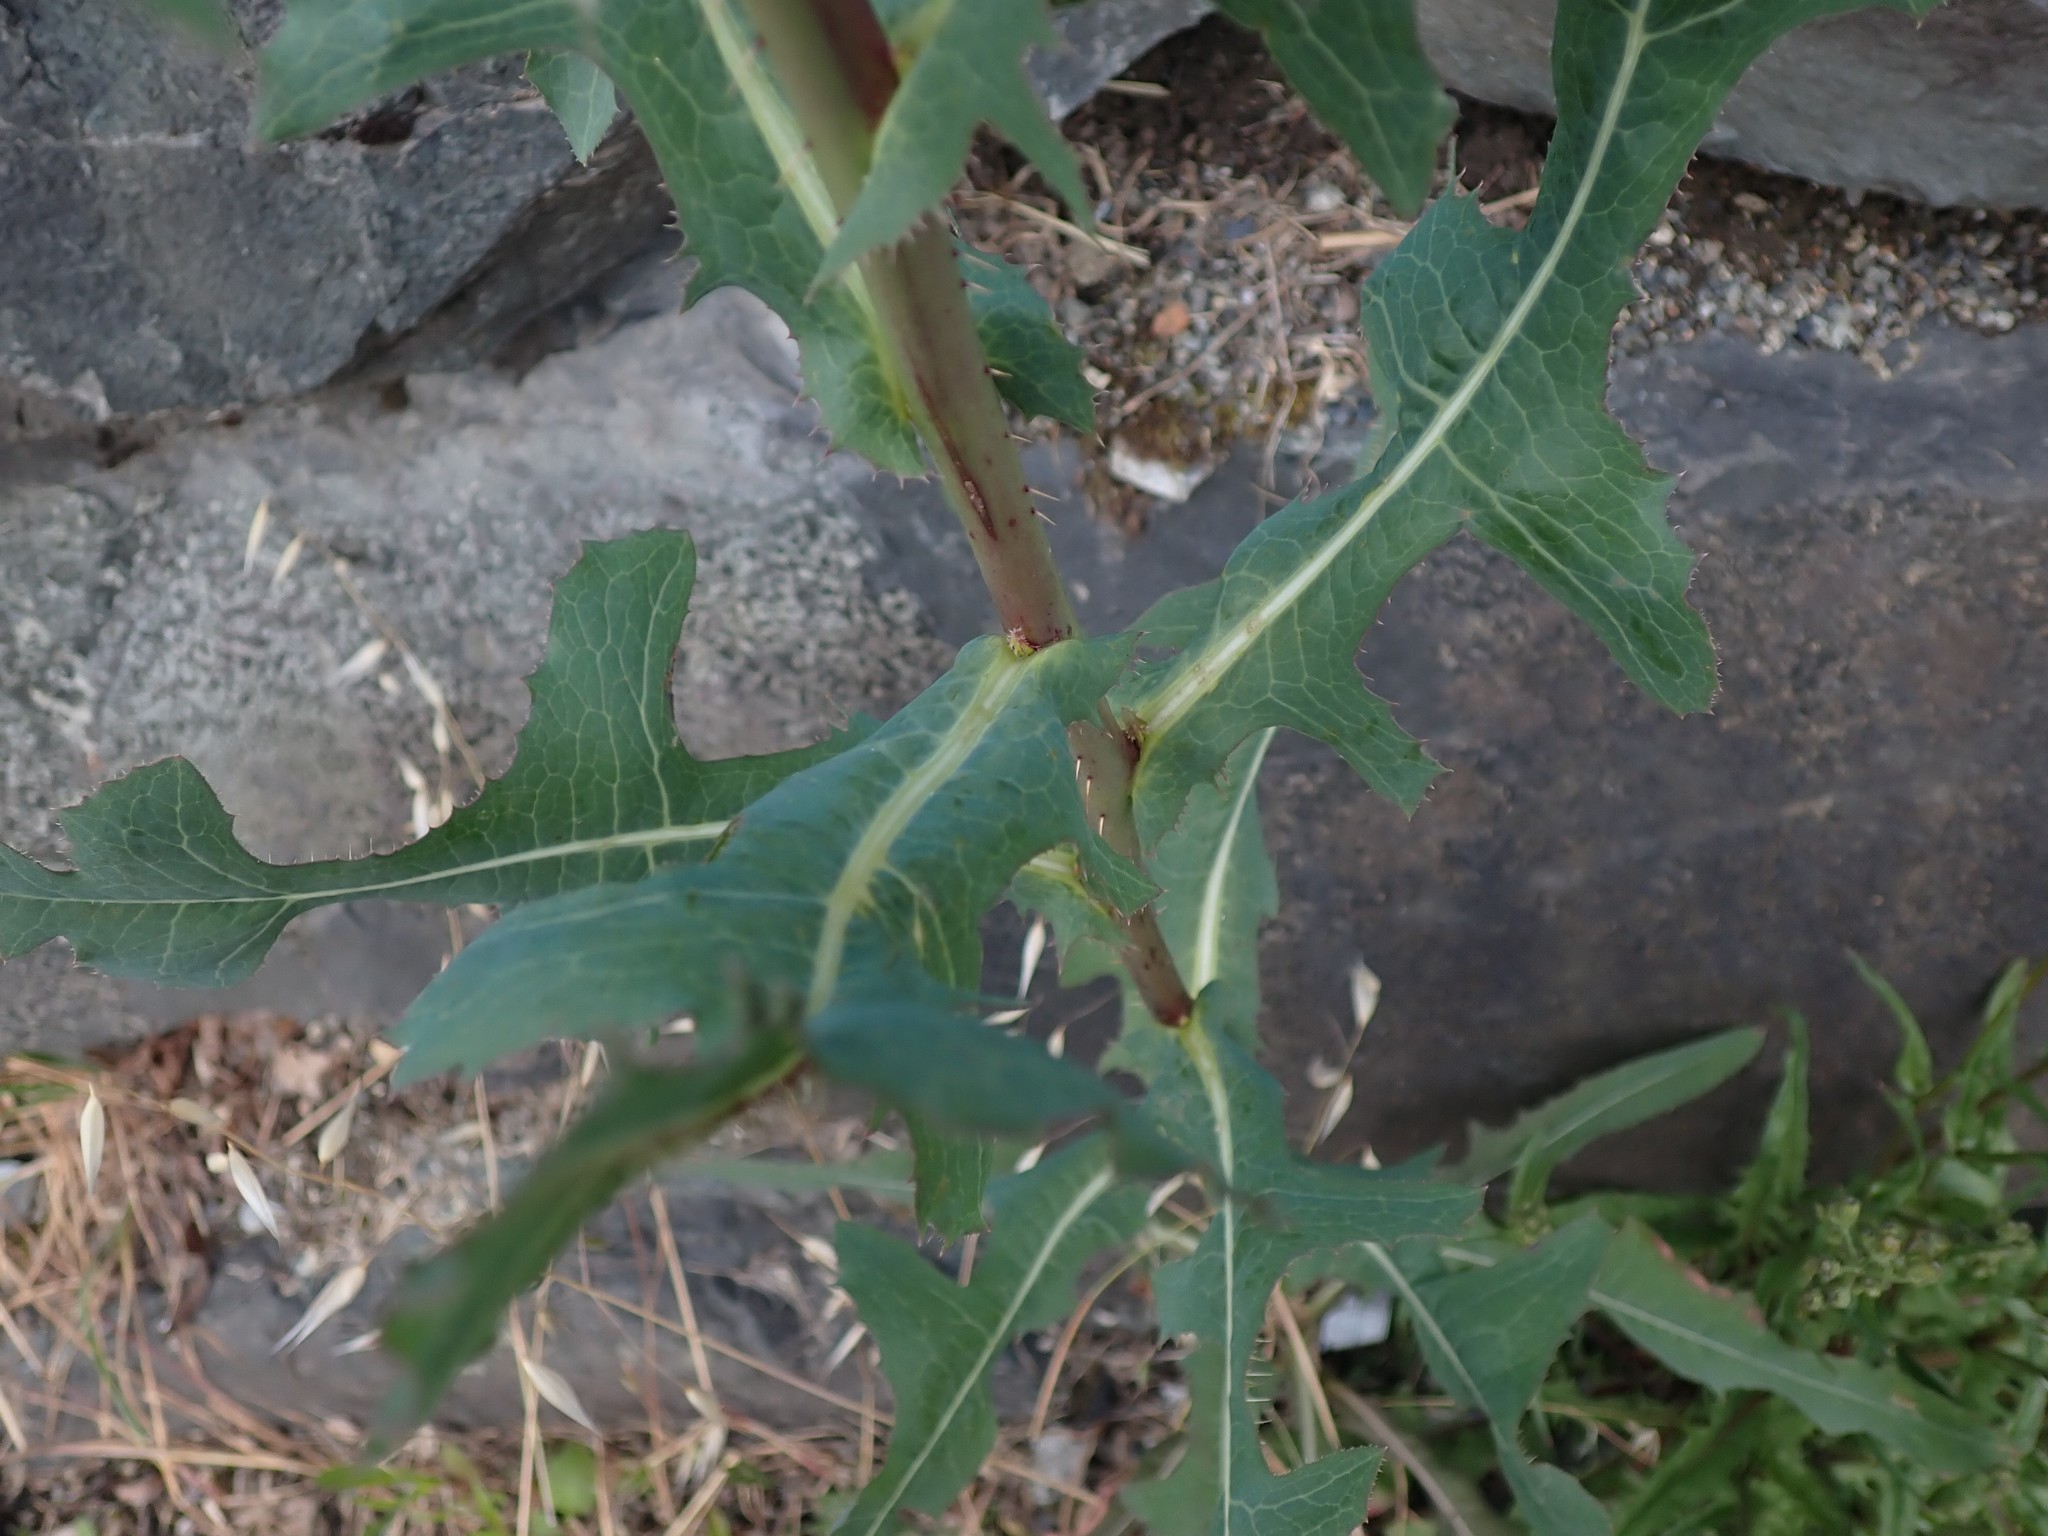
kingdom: Plantae
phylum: Tracheophyta
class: Magnoliopsida
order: Asterales
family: Asteraceae
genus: Lactuca
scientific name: Lactuca serriola
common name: Prickly lettuce
